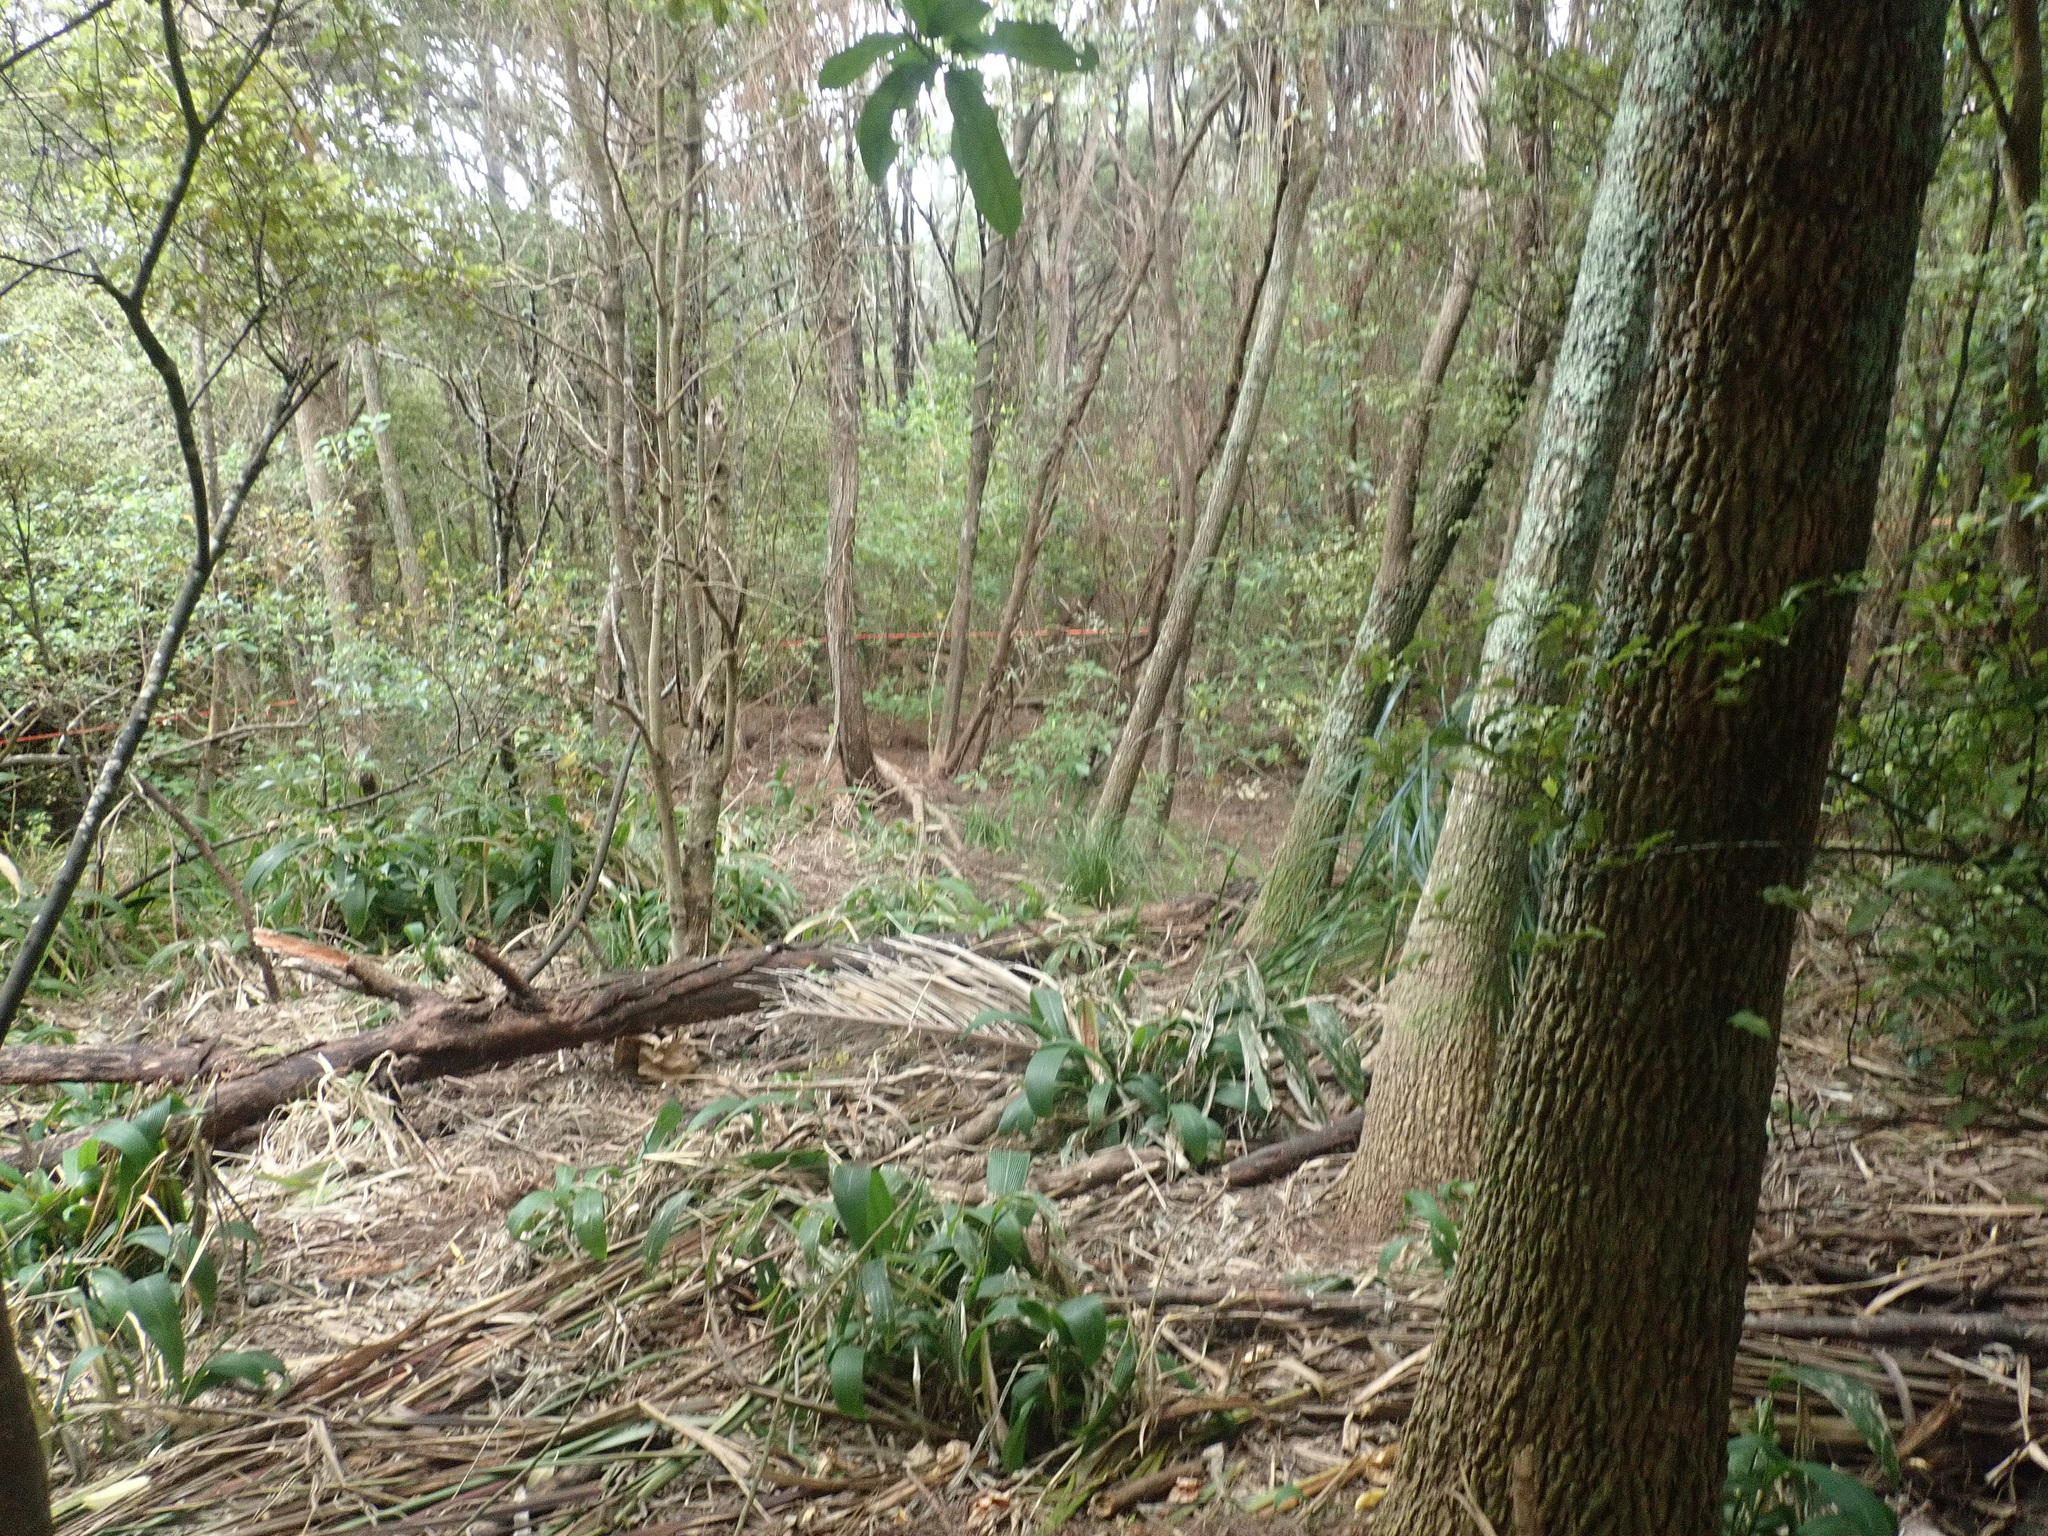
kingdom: Plantae
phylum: Tracheophyta
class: Liliopsida
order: Poales
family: Poaceae
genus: Setaria
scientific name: Setaria palmifolia
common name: Broadleaved bristlegrass
